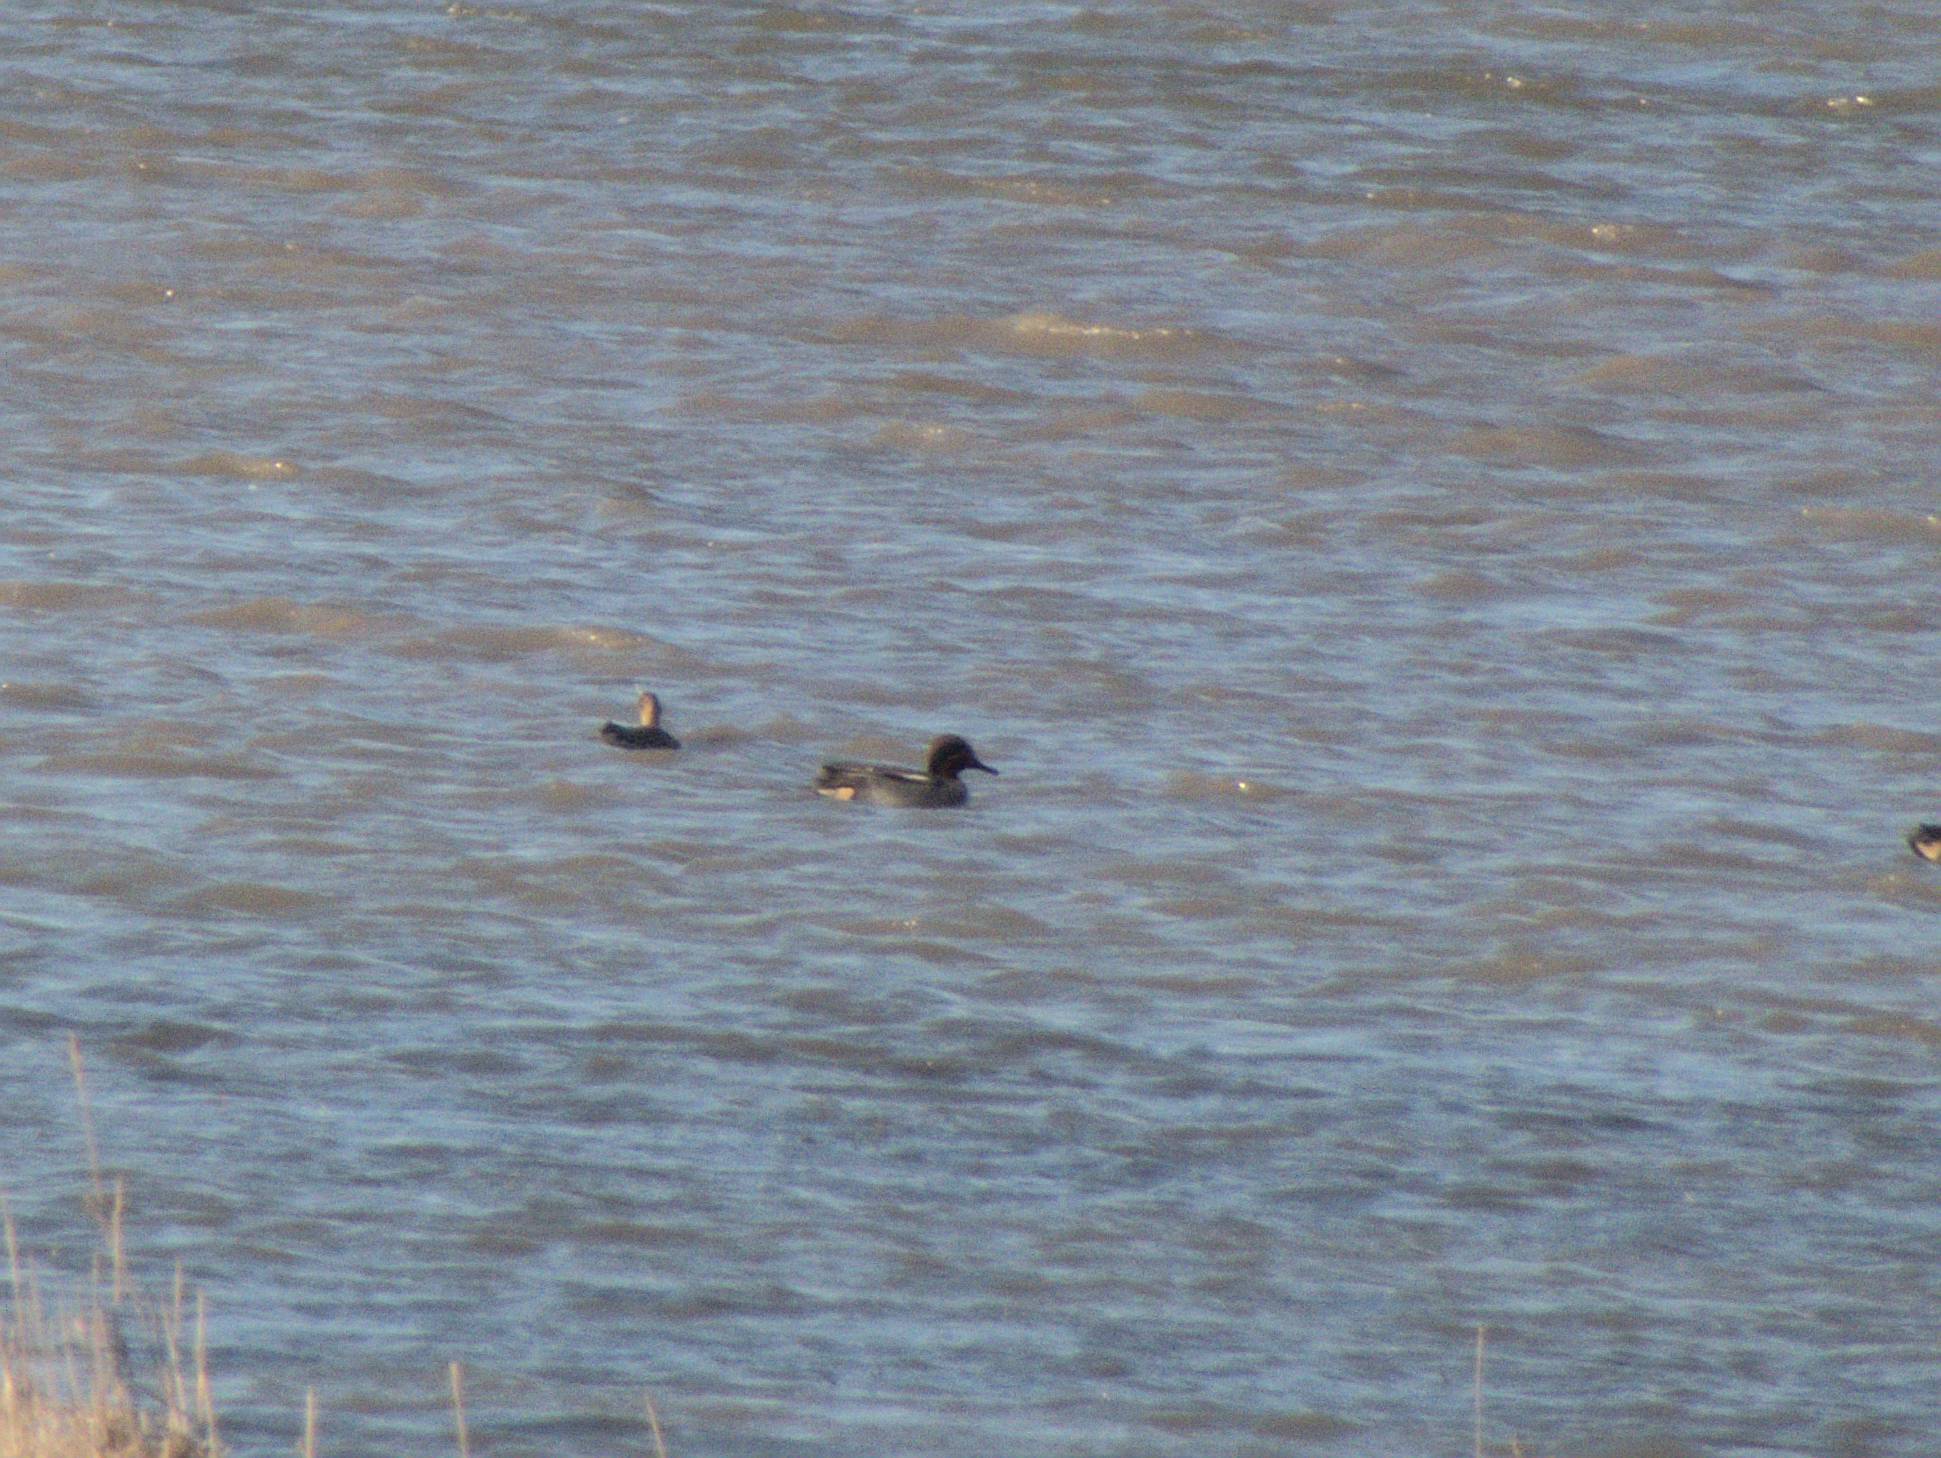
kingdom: Animalia
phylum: Chordata
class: Aves
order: Anseriformes
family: Anatidae
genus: Anas
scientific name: Anas crecca
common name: Eurasian teal
